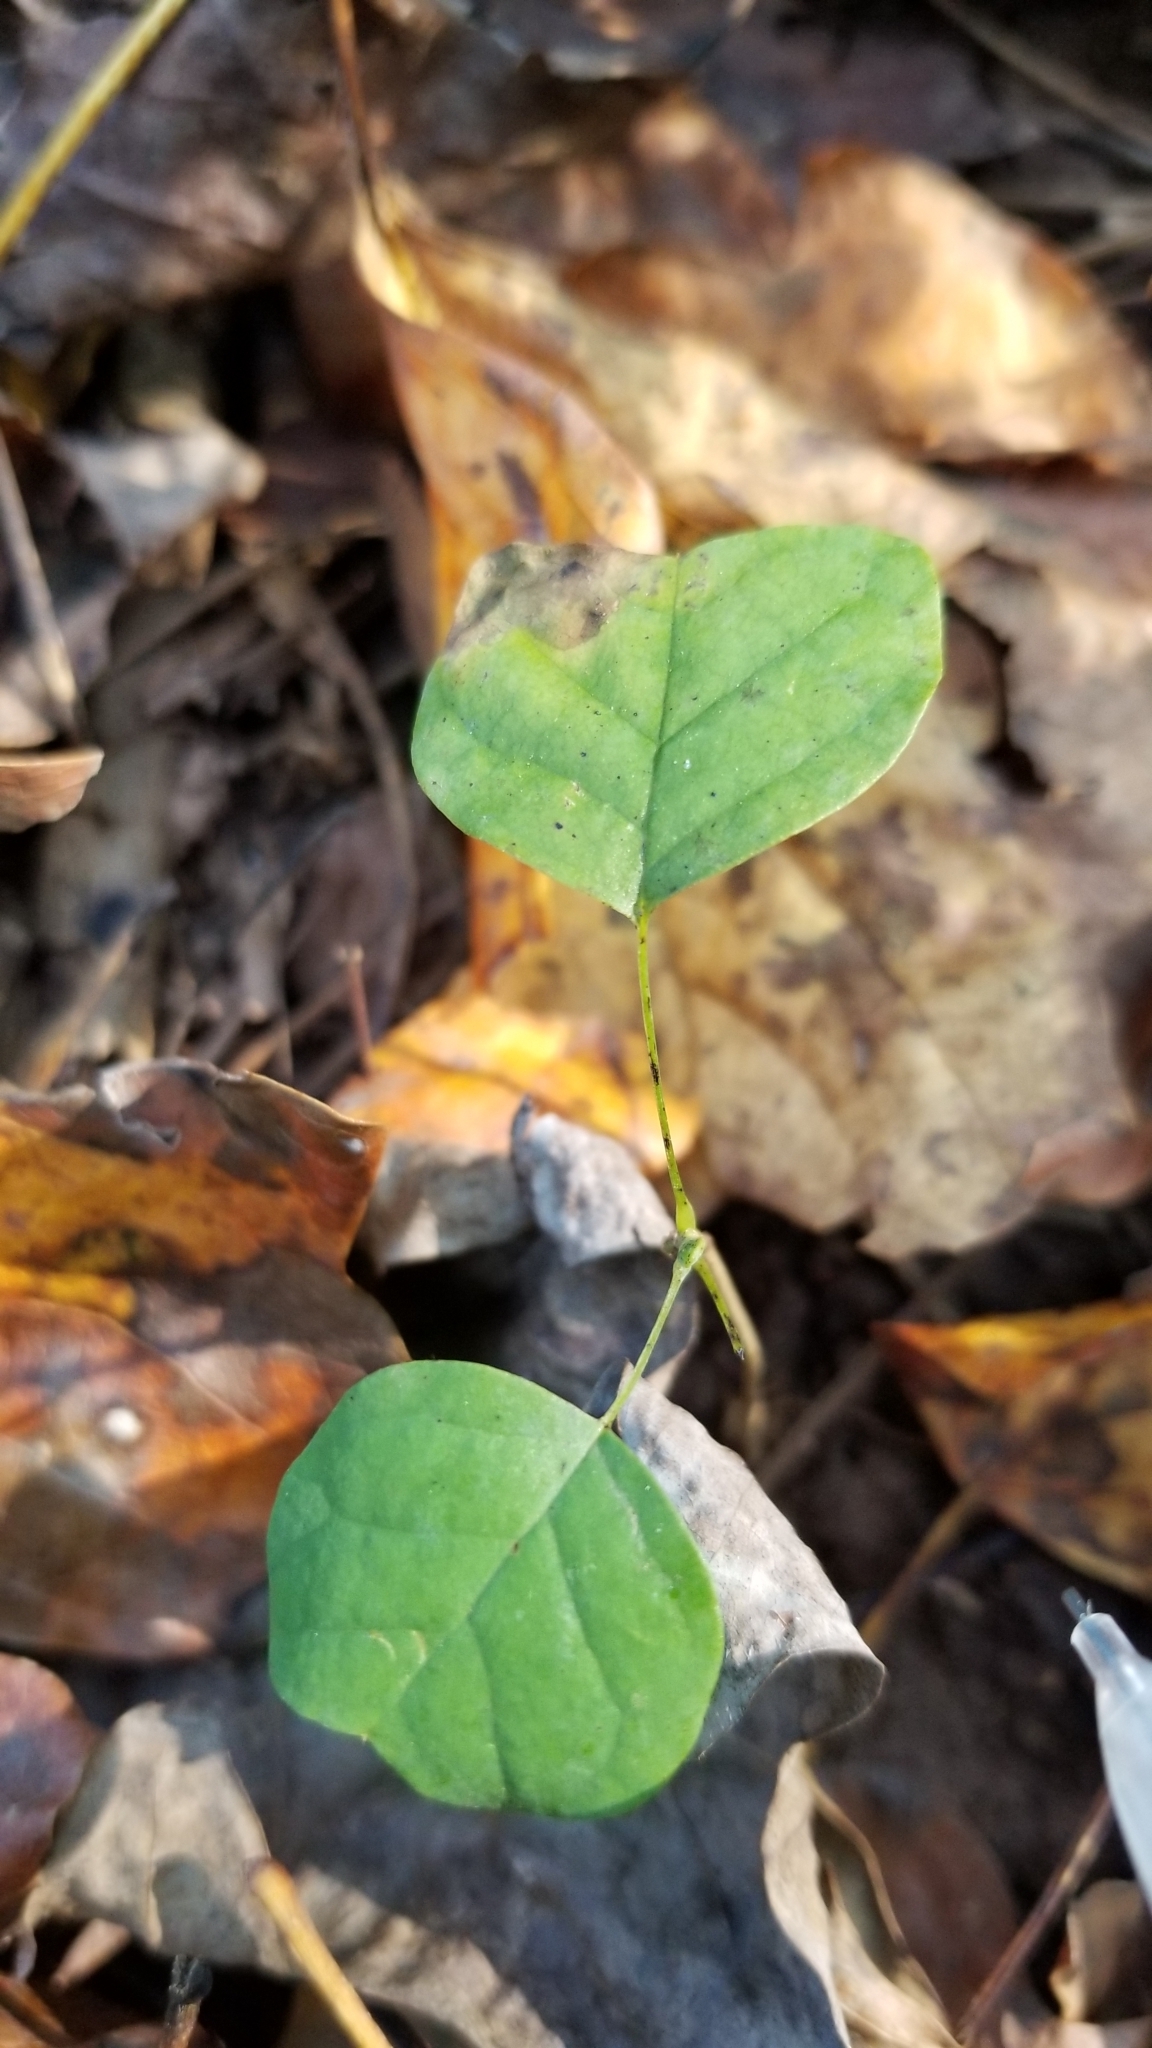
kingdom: Plantae
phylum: Tracheophyta
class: Magnoliopsida
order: Magnoliales
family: Magnoliaceae
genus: Liriodendron
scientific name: Liriodendron tulipifera
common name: Tulip tree
